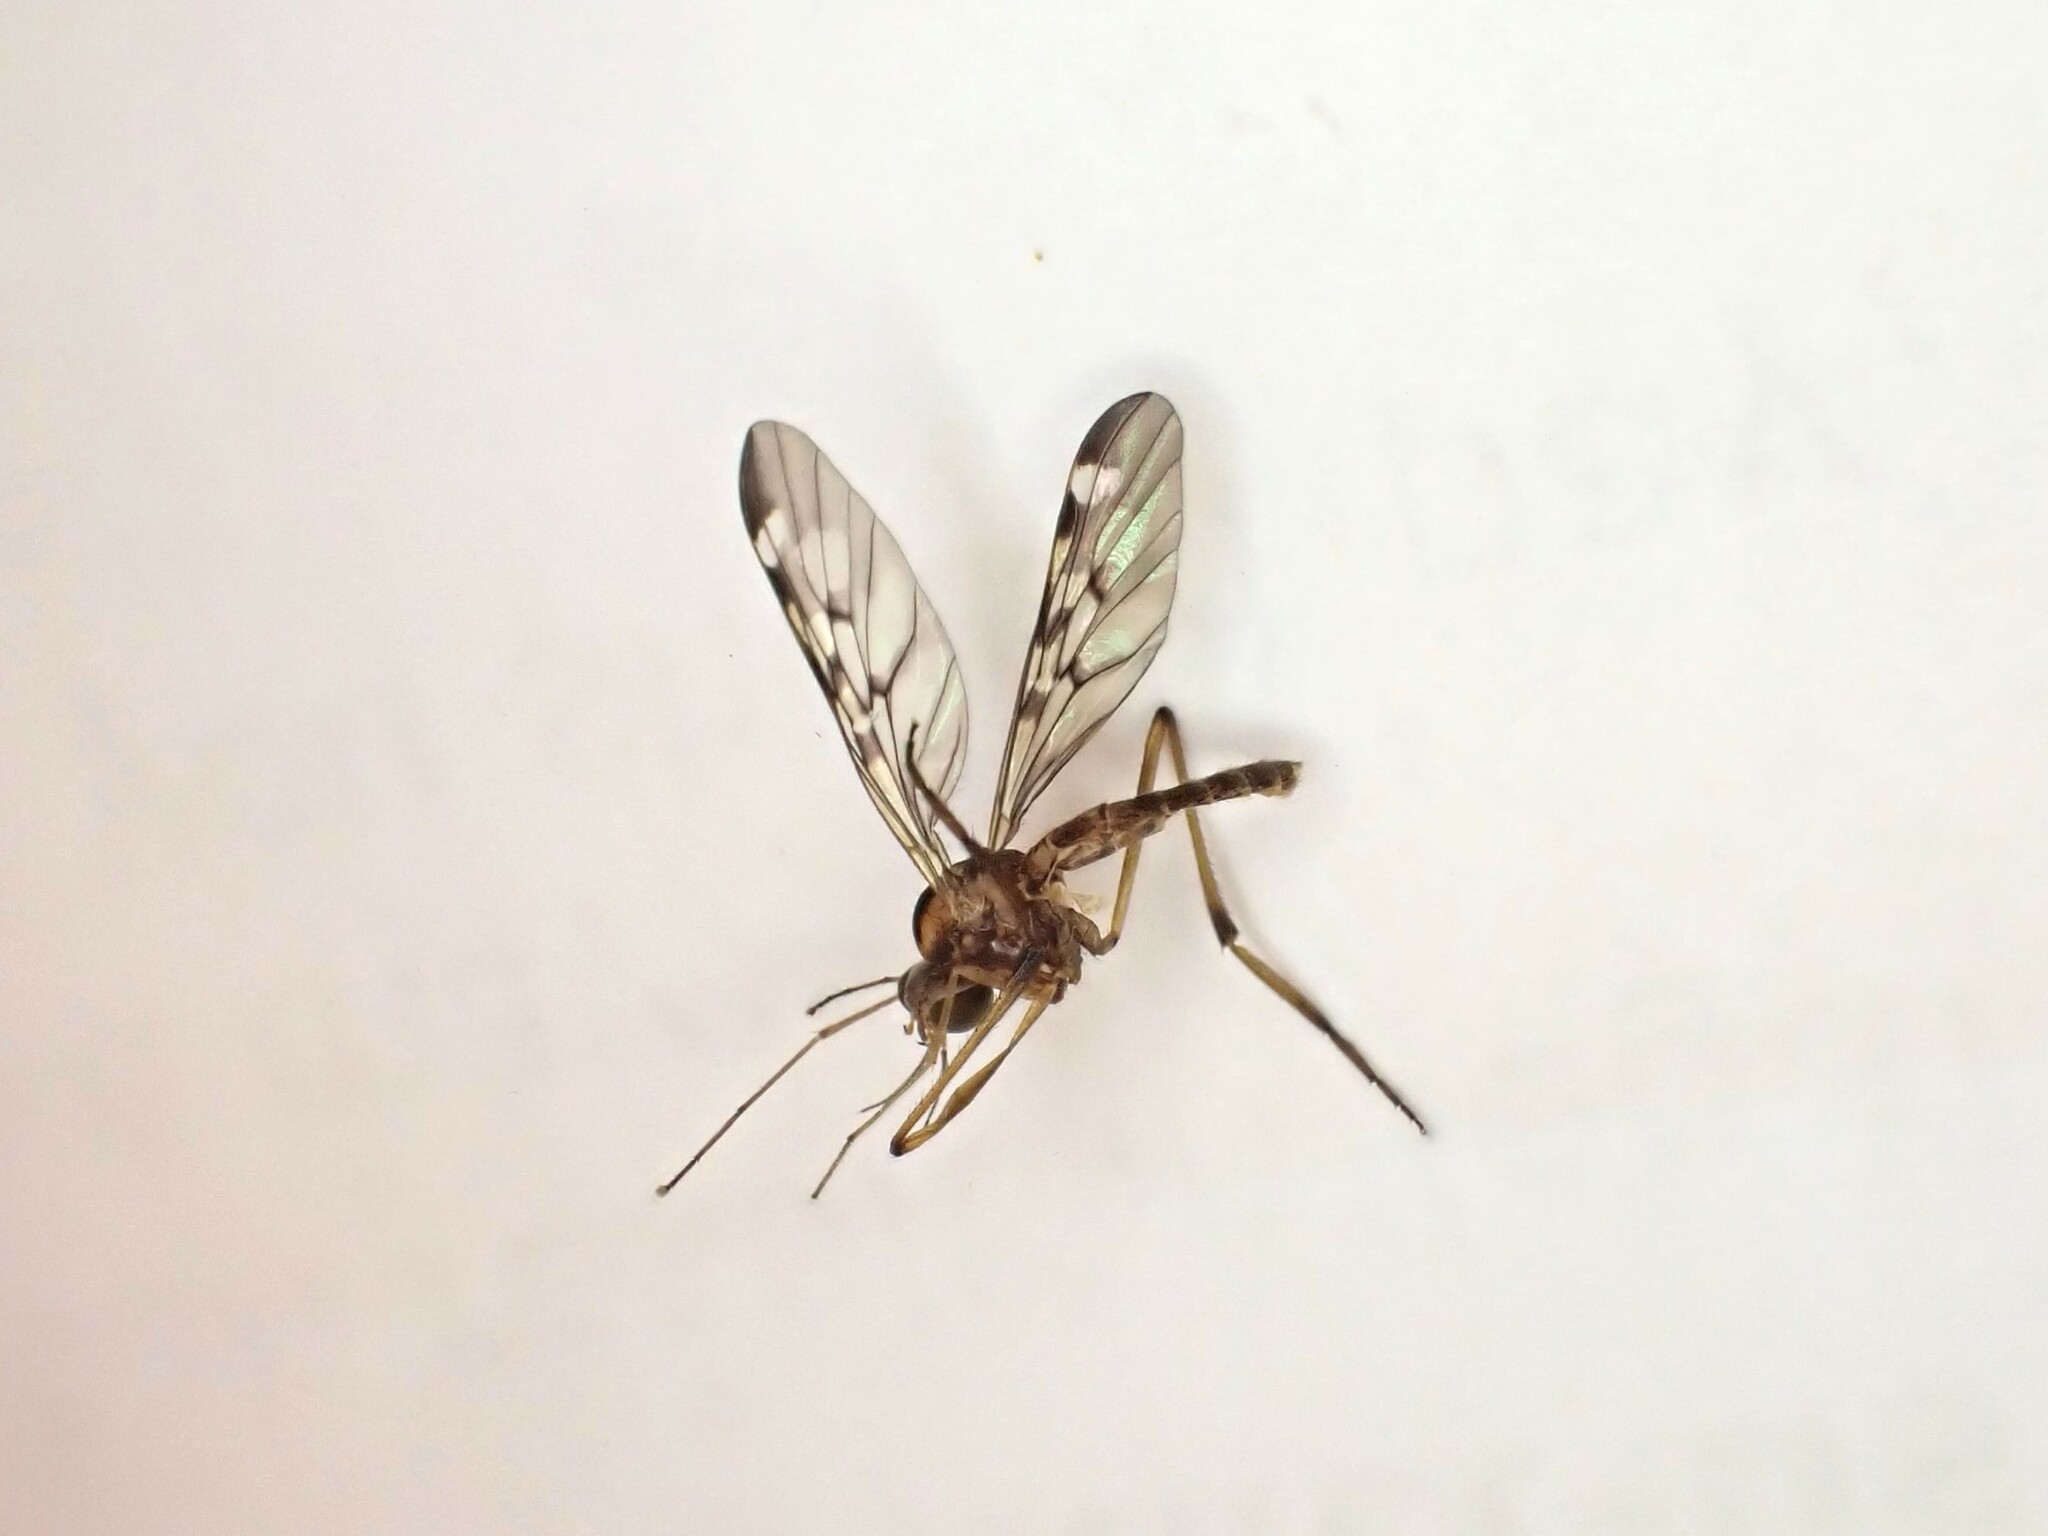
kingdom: Animalia
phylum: Arthropoda
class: Insecta
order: Diptera
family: Anisopodidae
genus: Sylvicola
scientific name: Sylvicola notatus
